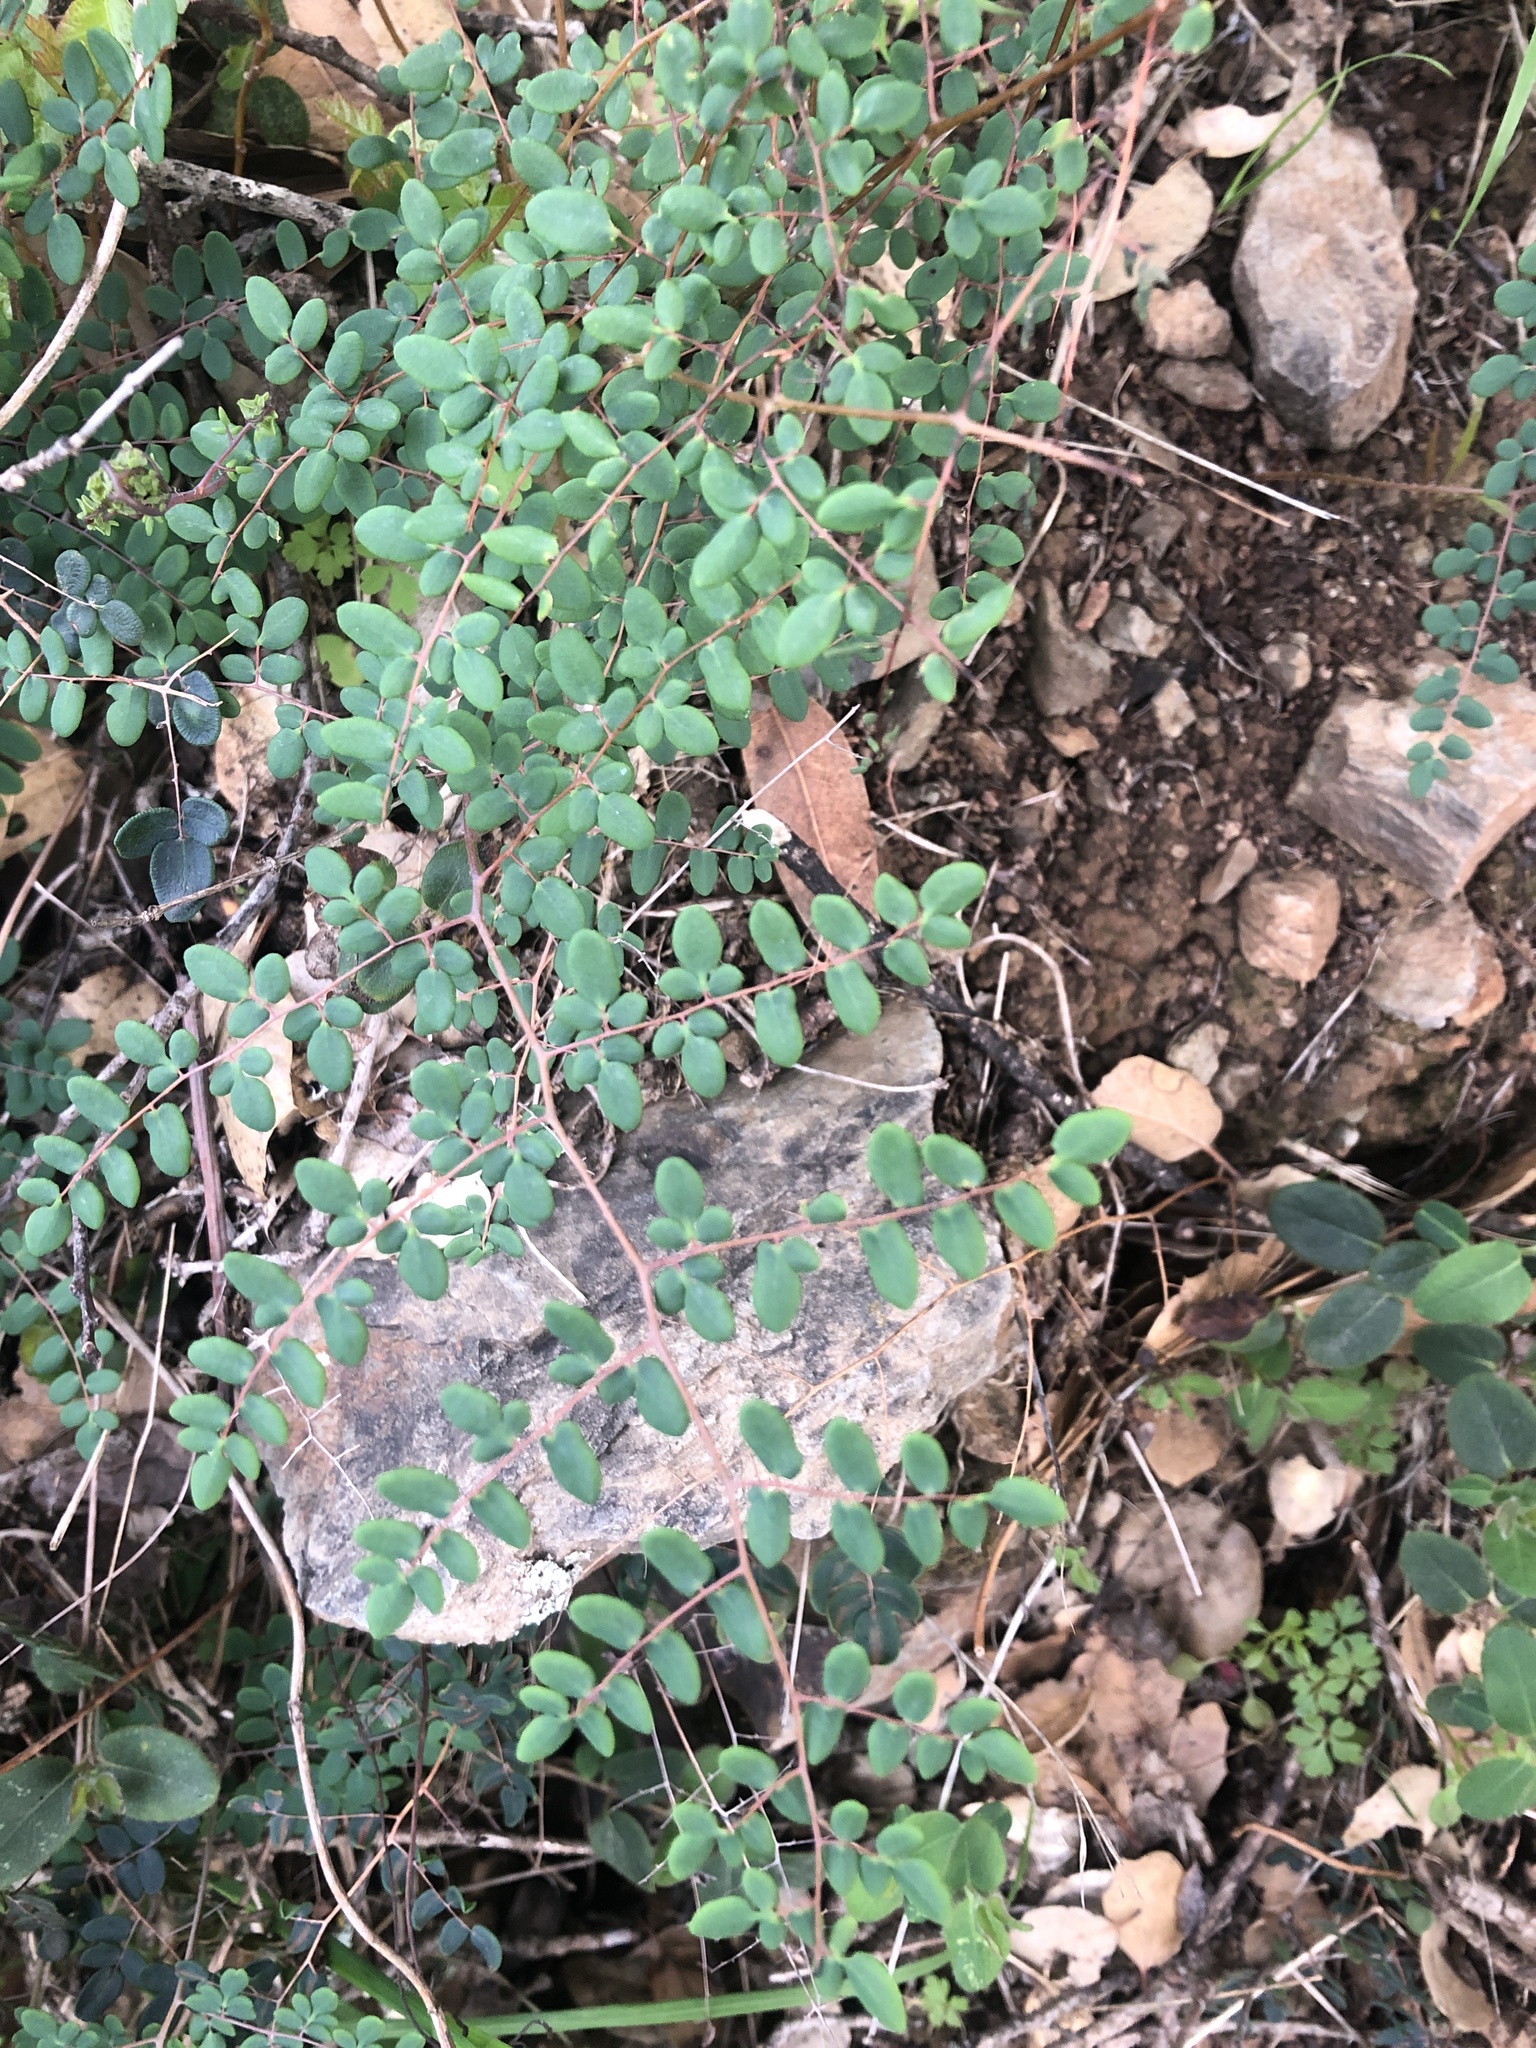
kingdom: Plantae
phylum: Tracheophyta
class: Polypodiopsida
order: Polypodiales
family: Pteridaceae
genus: Pellaea
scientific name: Pellaea andromedifolia
